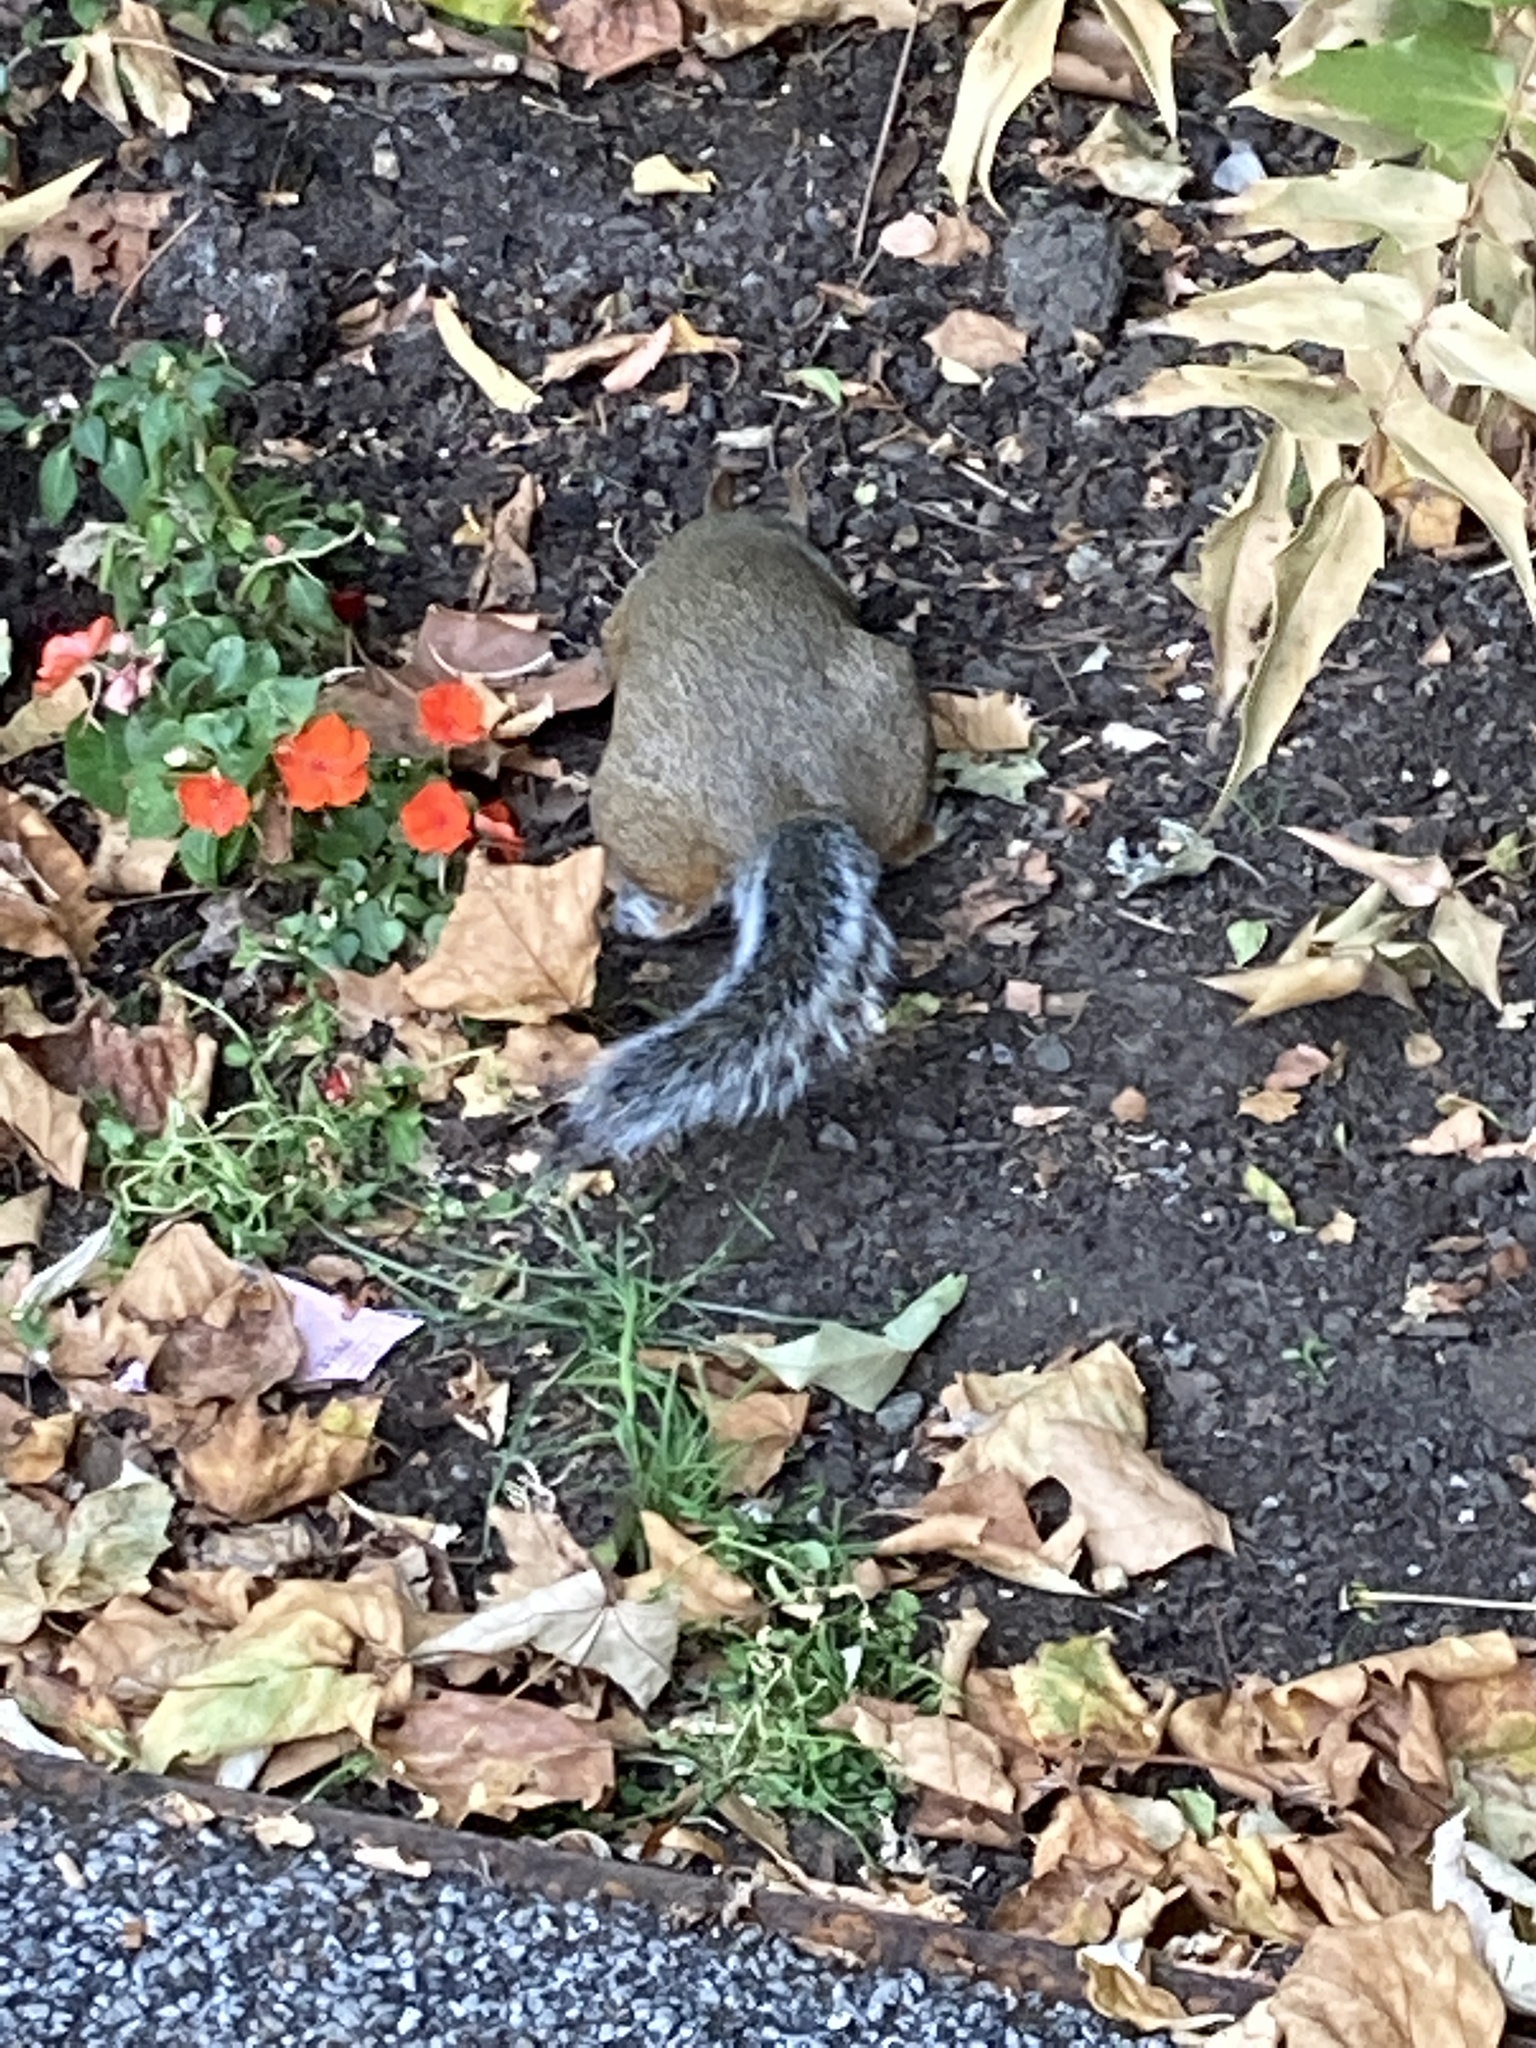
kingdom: Animalia
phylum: Chordata
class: Mammalia
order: Rodentia
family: Sciuridae
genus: Sciurus
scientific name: Sciurus carolinensis
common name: Eastern gray squirrel
